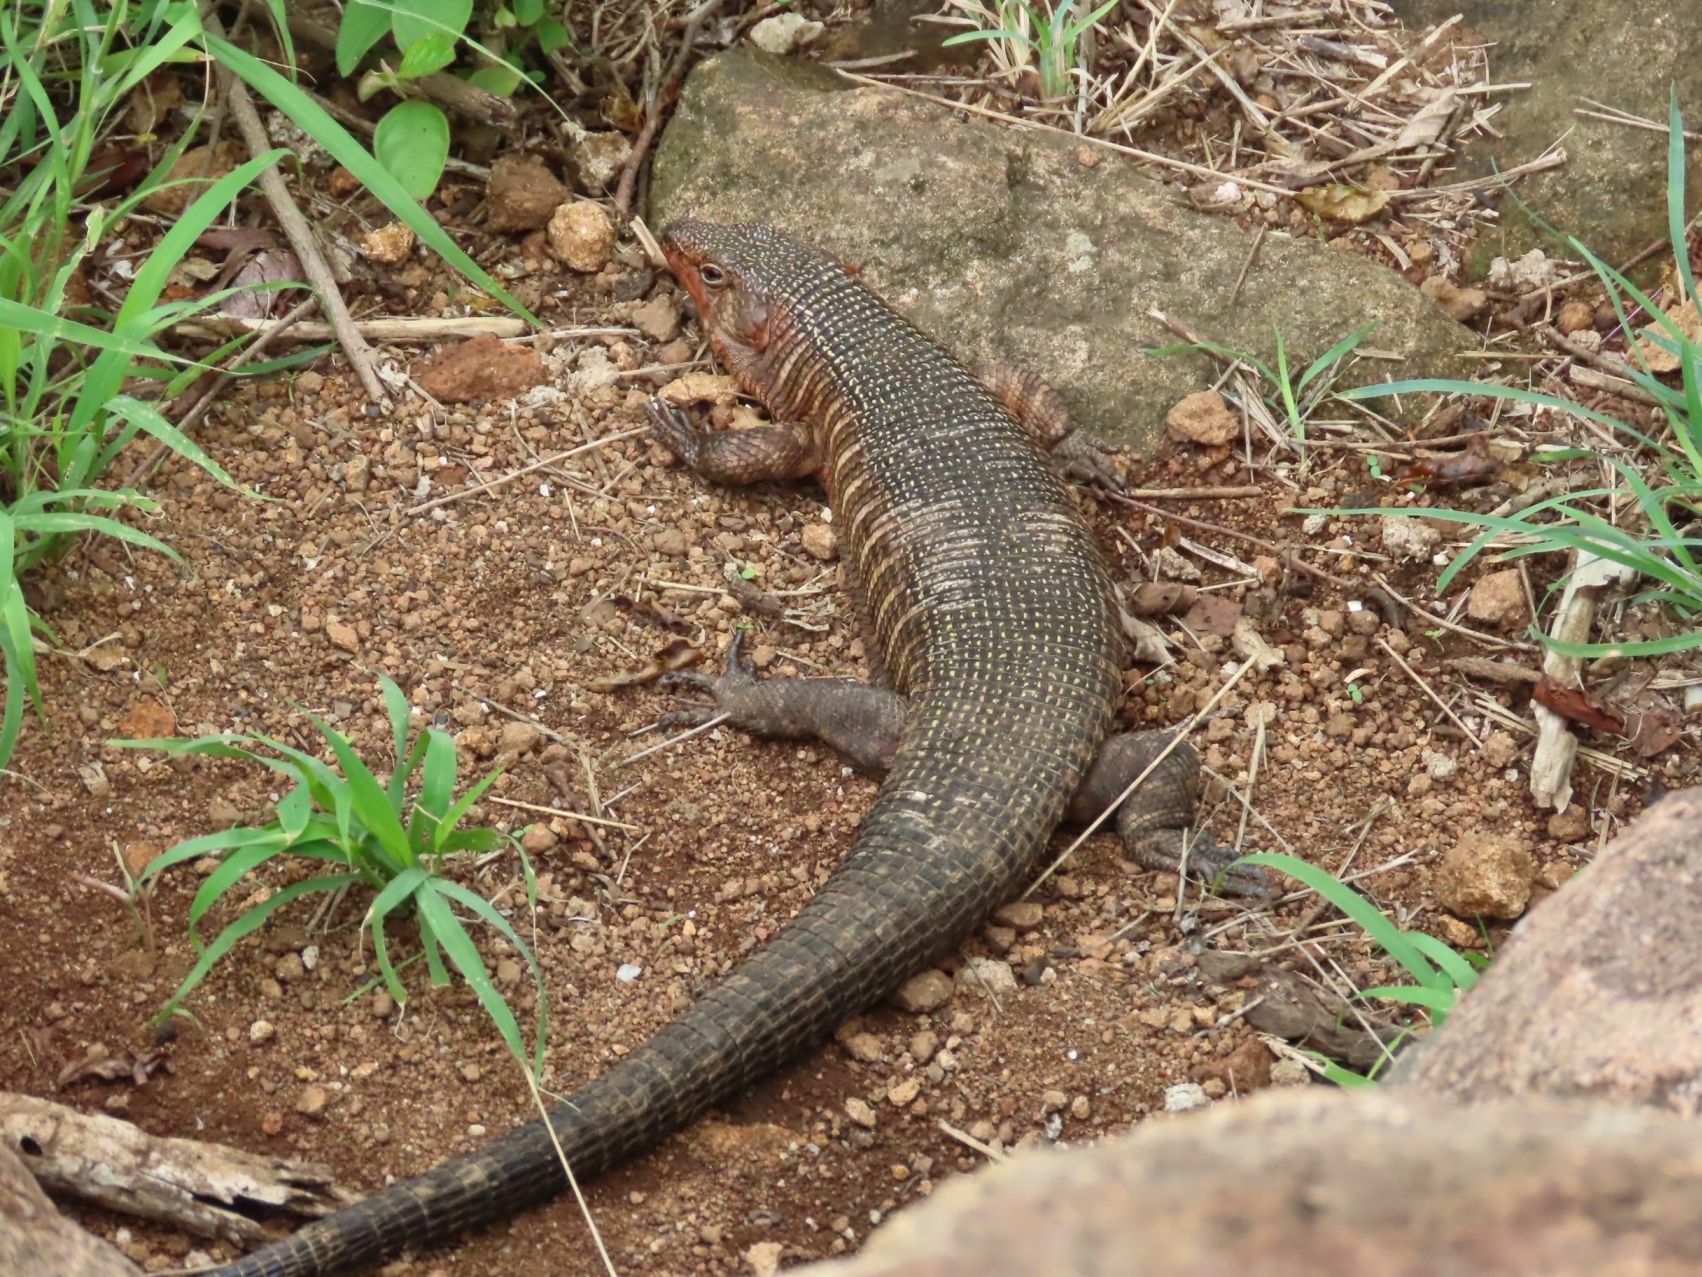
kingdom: Animalia
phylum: Chordata
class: Squamata
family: Gerrhosauridae
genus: Matobosaurus
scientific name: Matobosaurus validus
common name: Common giant plated lizard
